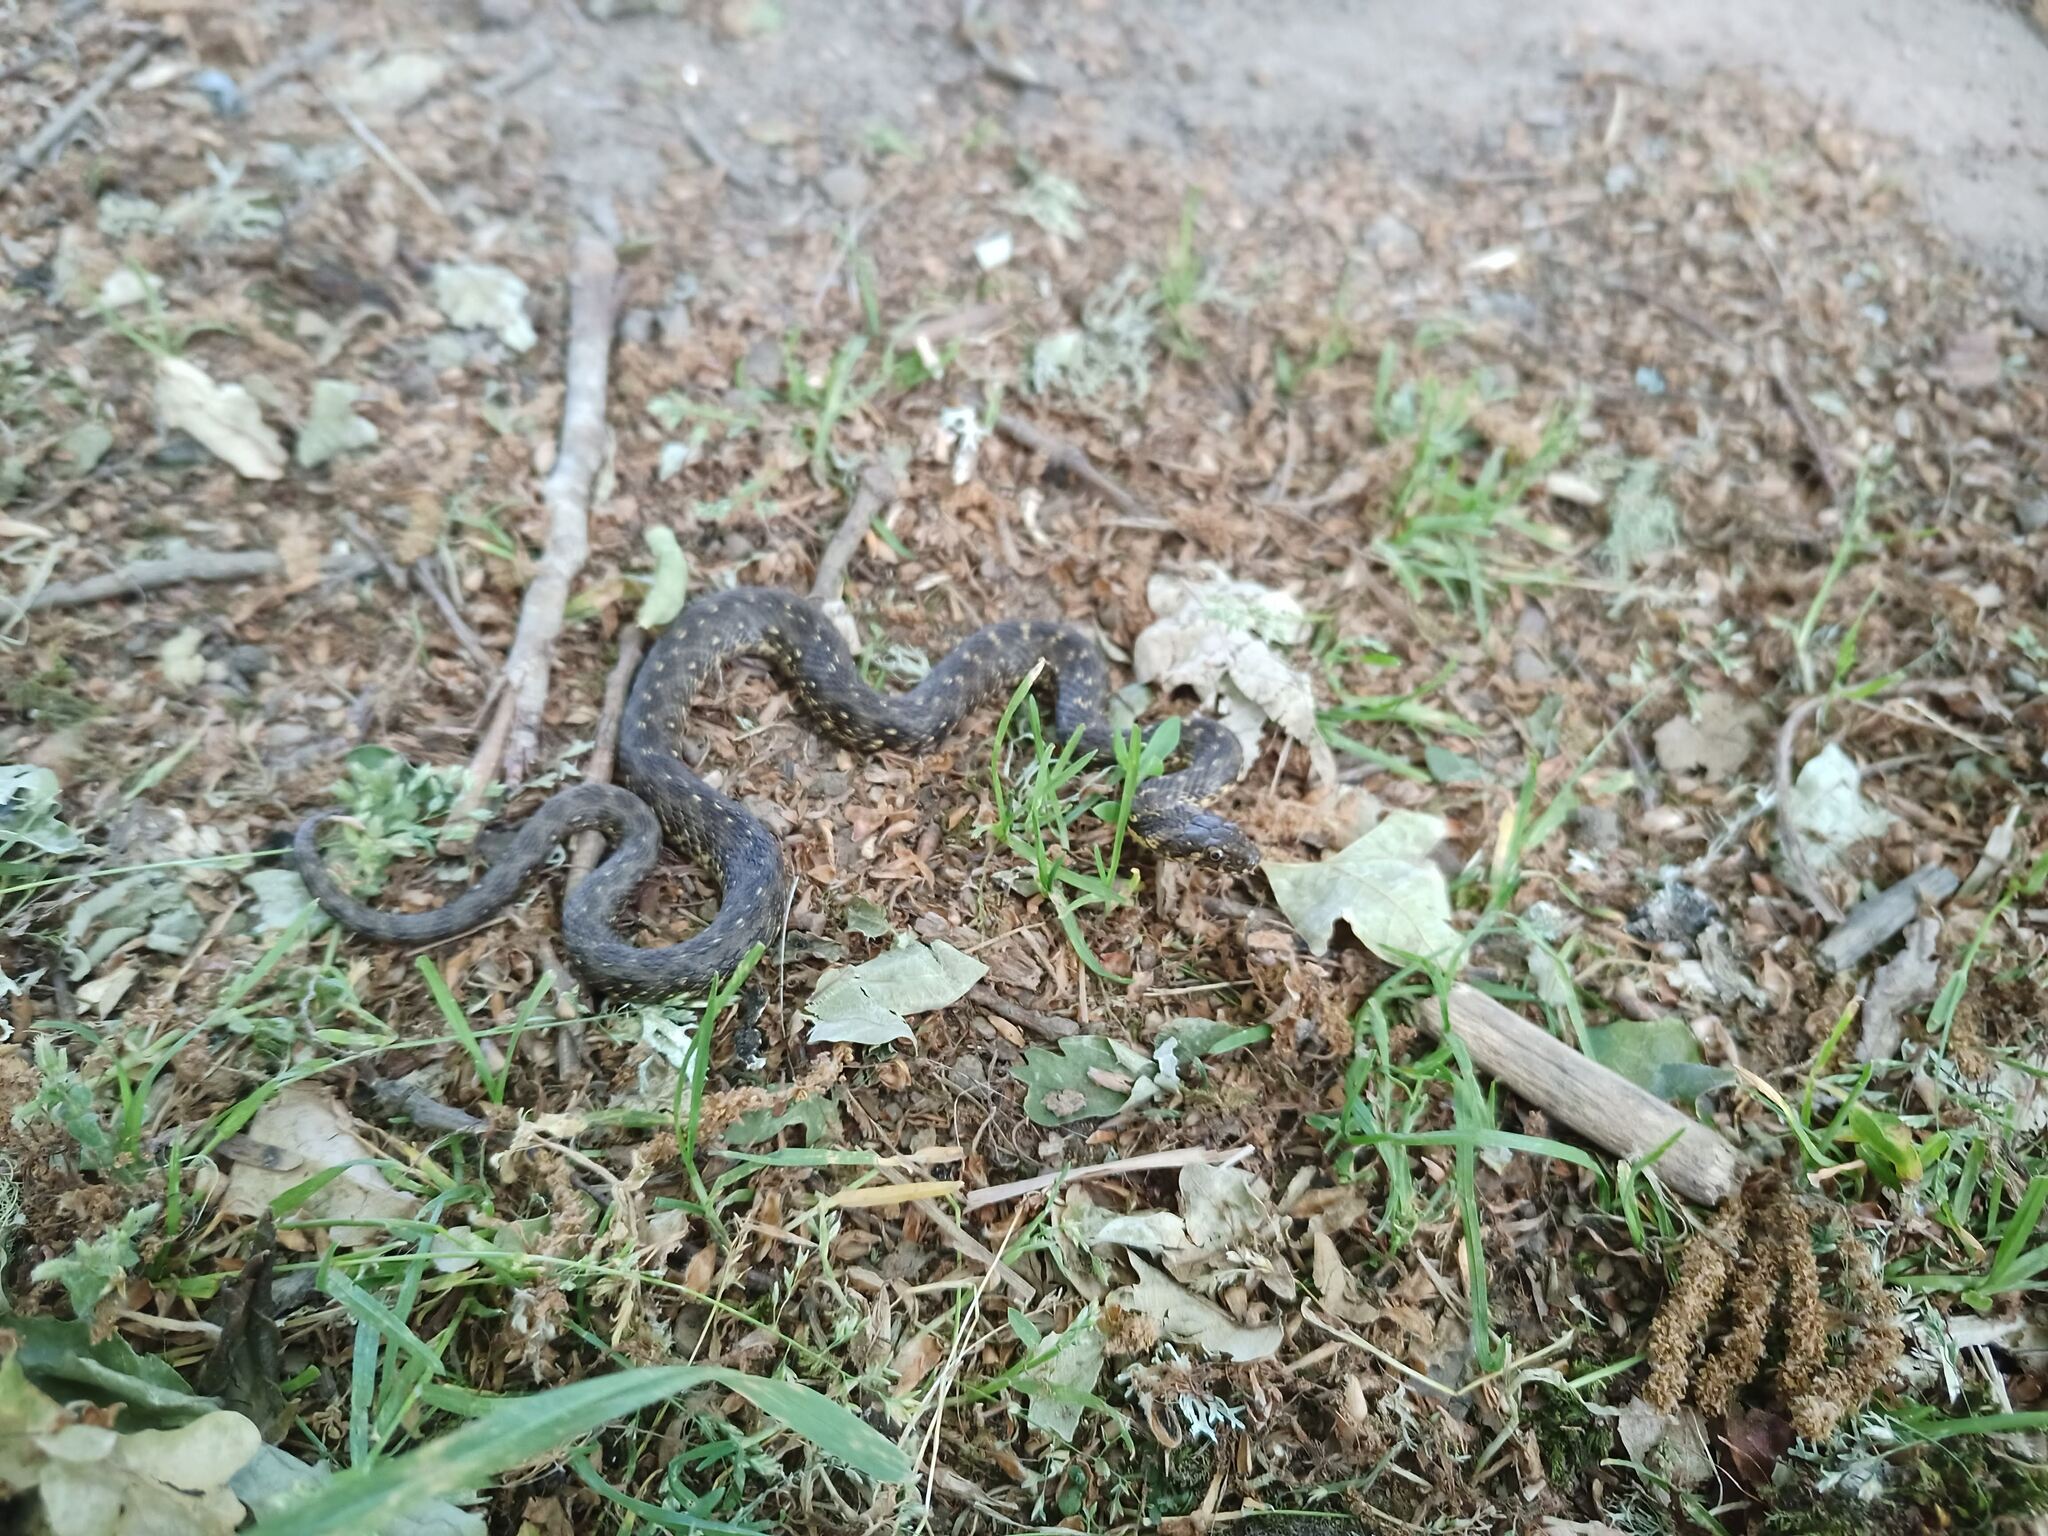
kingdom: Animalia
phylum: Chordata
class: Squamata
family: Colubridae
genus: Natrix
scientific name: Natrix maura
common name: Viperine water snake
